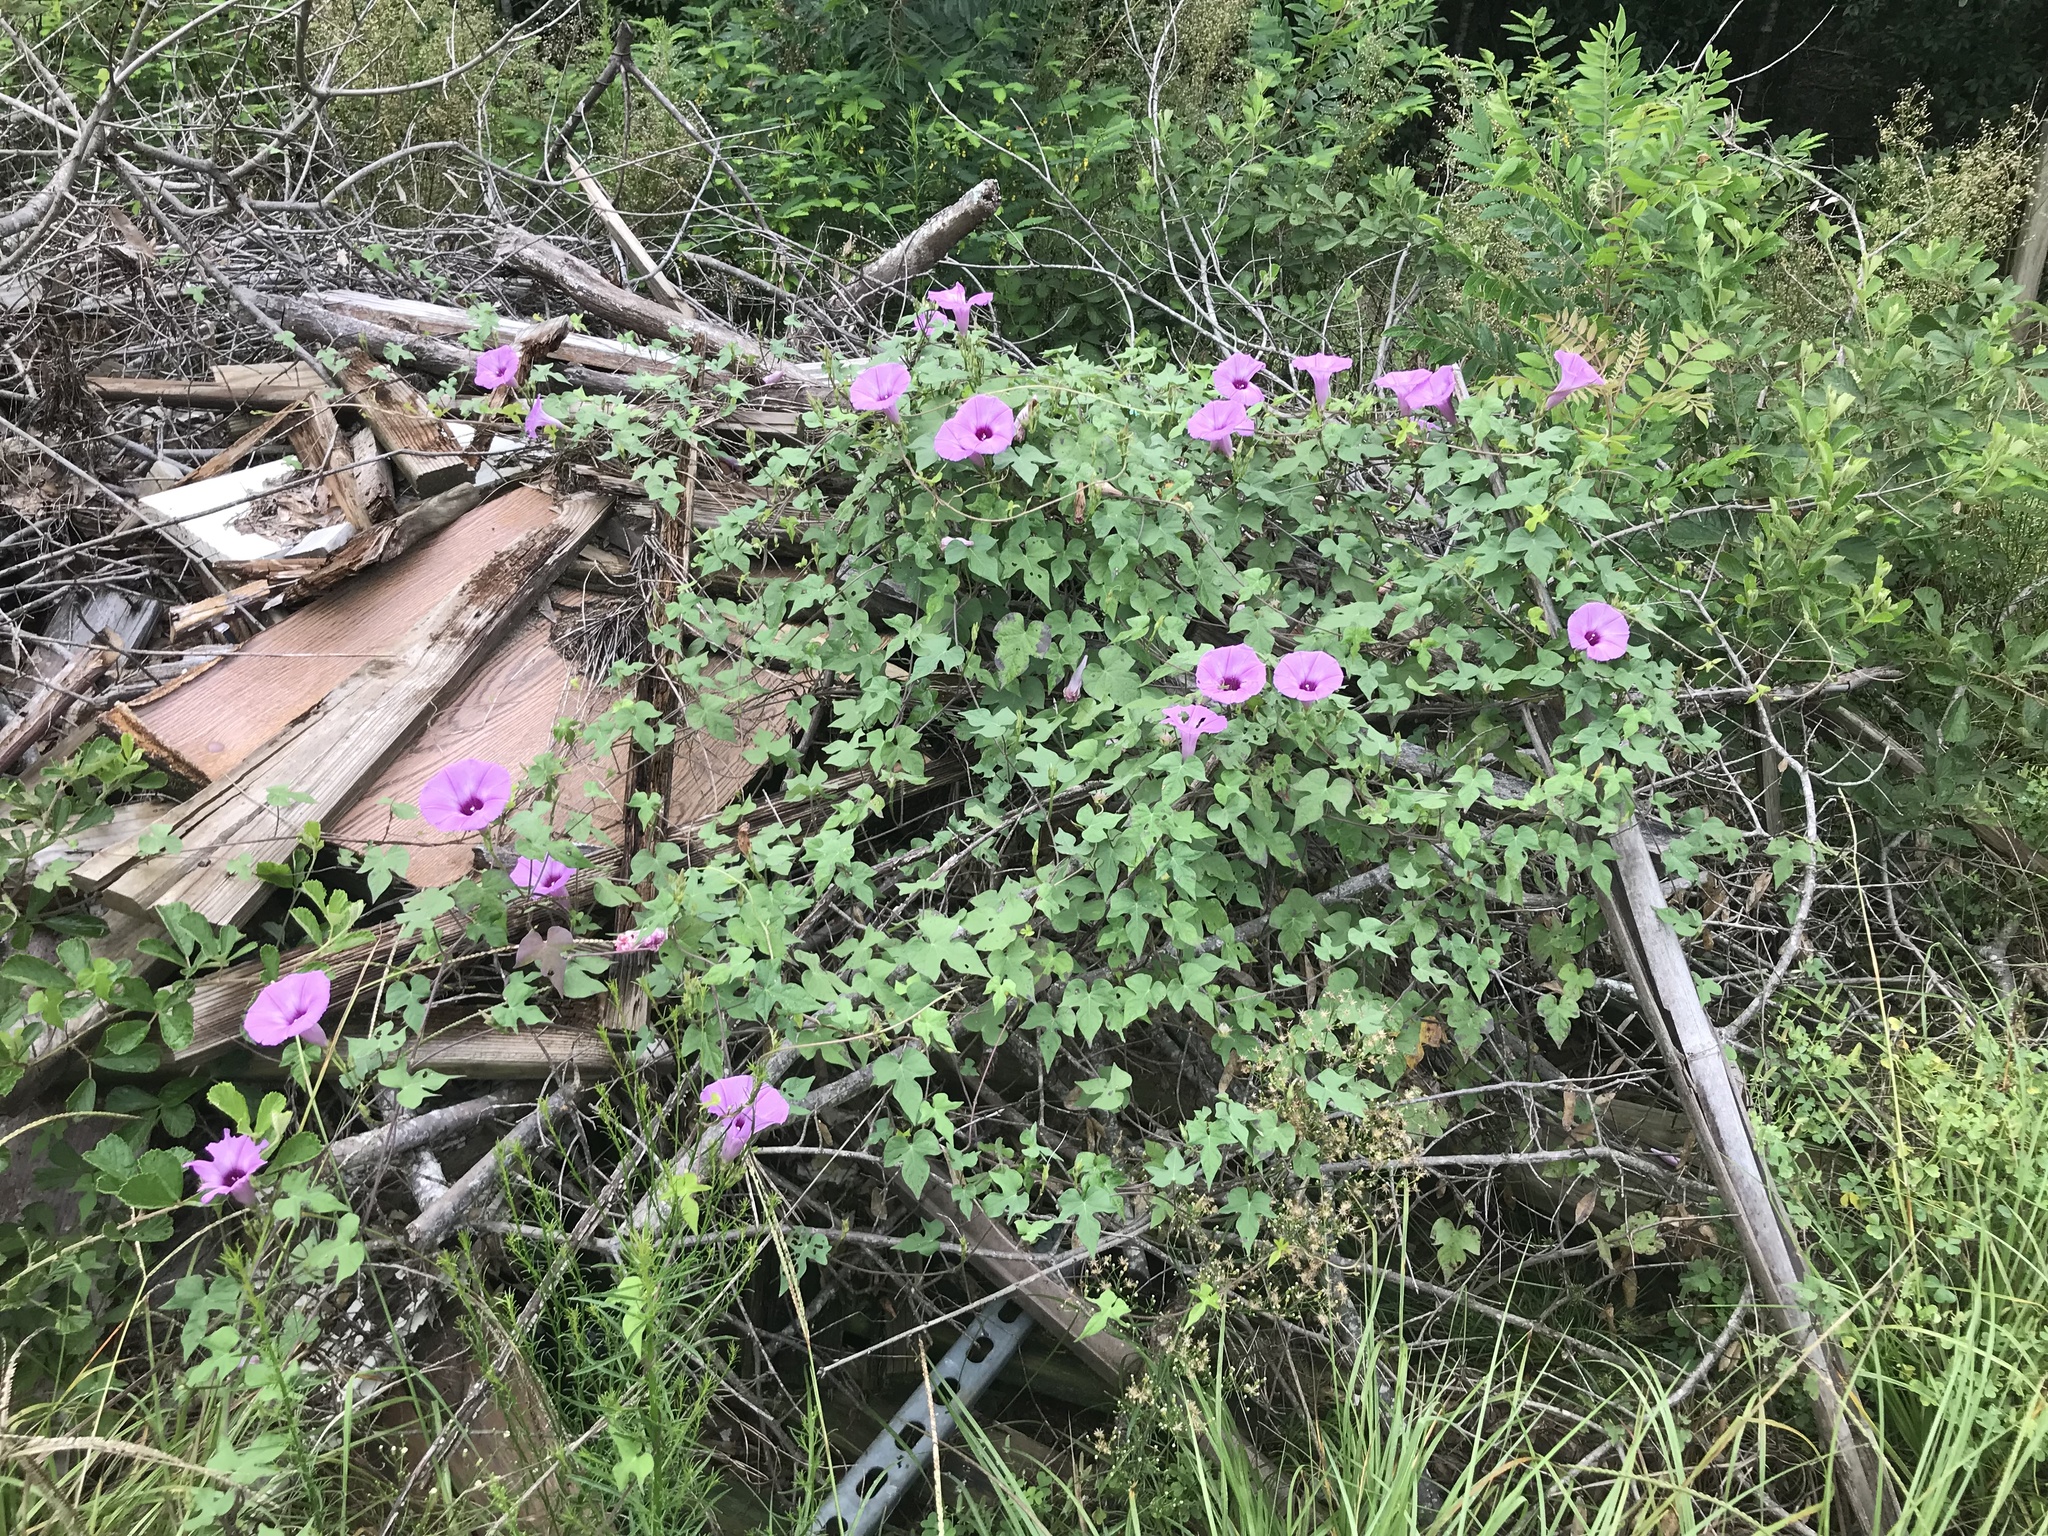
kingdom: Plantae
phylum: Tracheophyta
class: Magnoliopsida
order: Solanales
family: Convolvulaceae
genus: Ipomoea
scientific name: Ipomoea cordatotriloba
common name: Cotton morning glory
